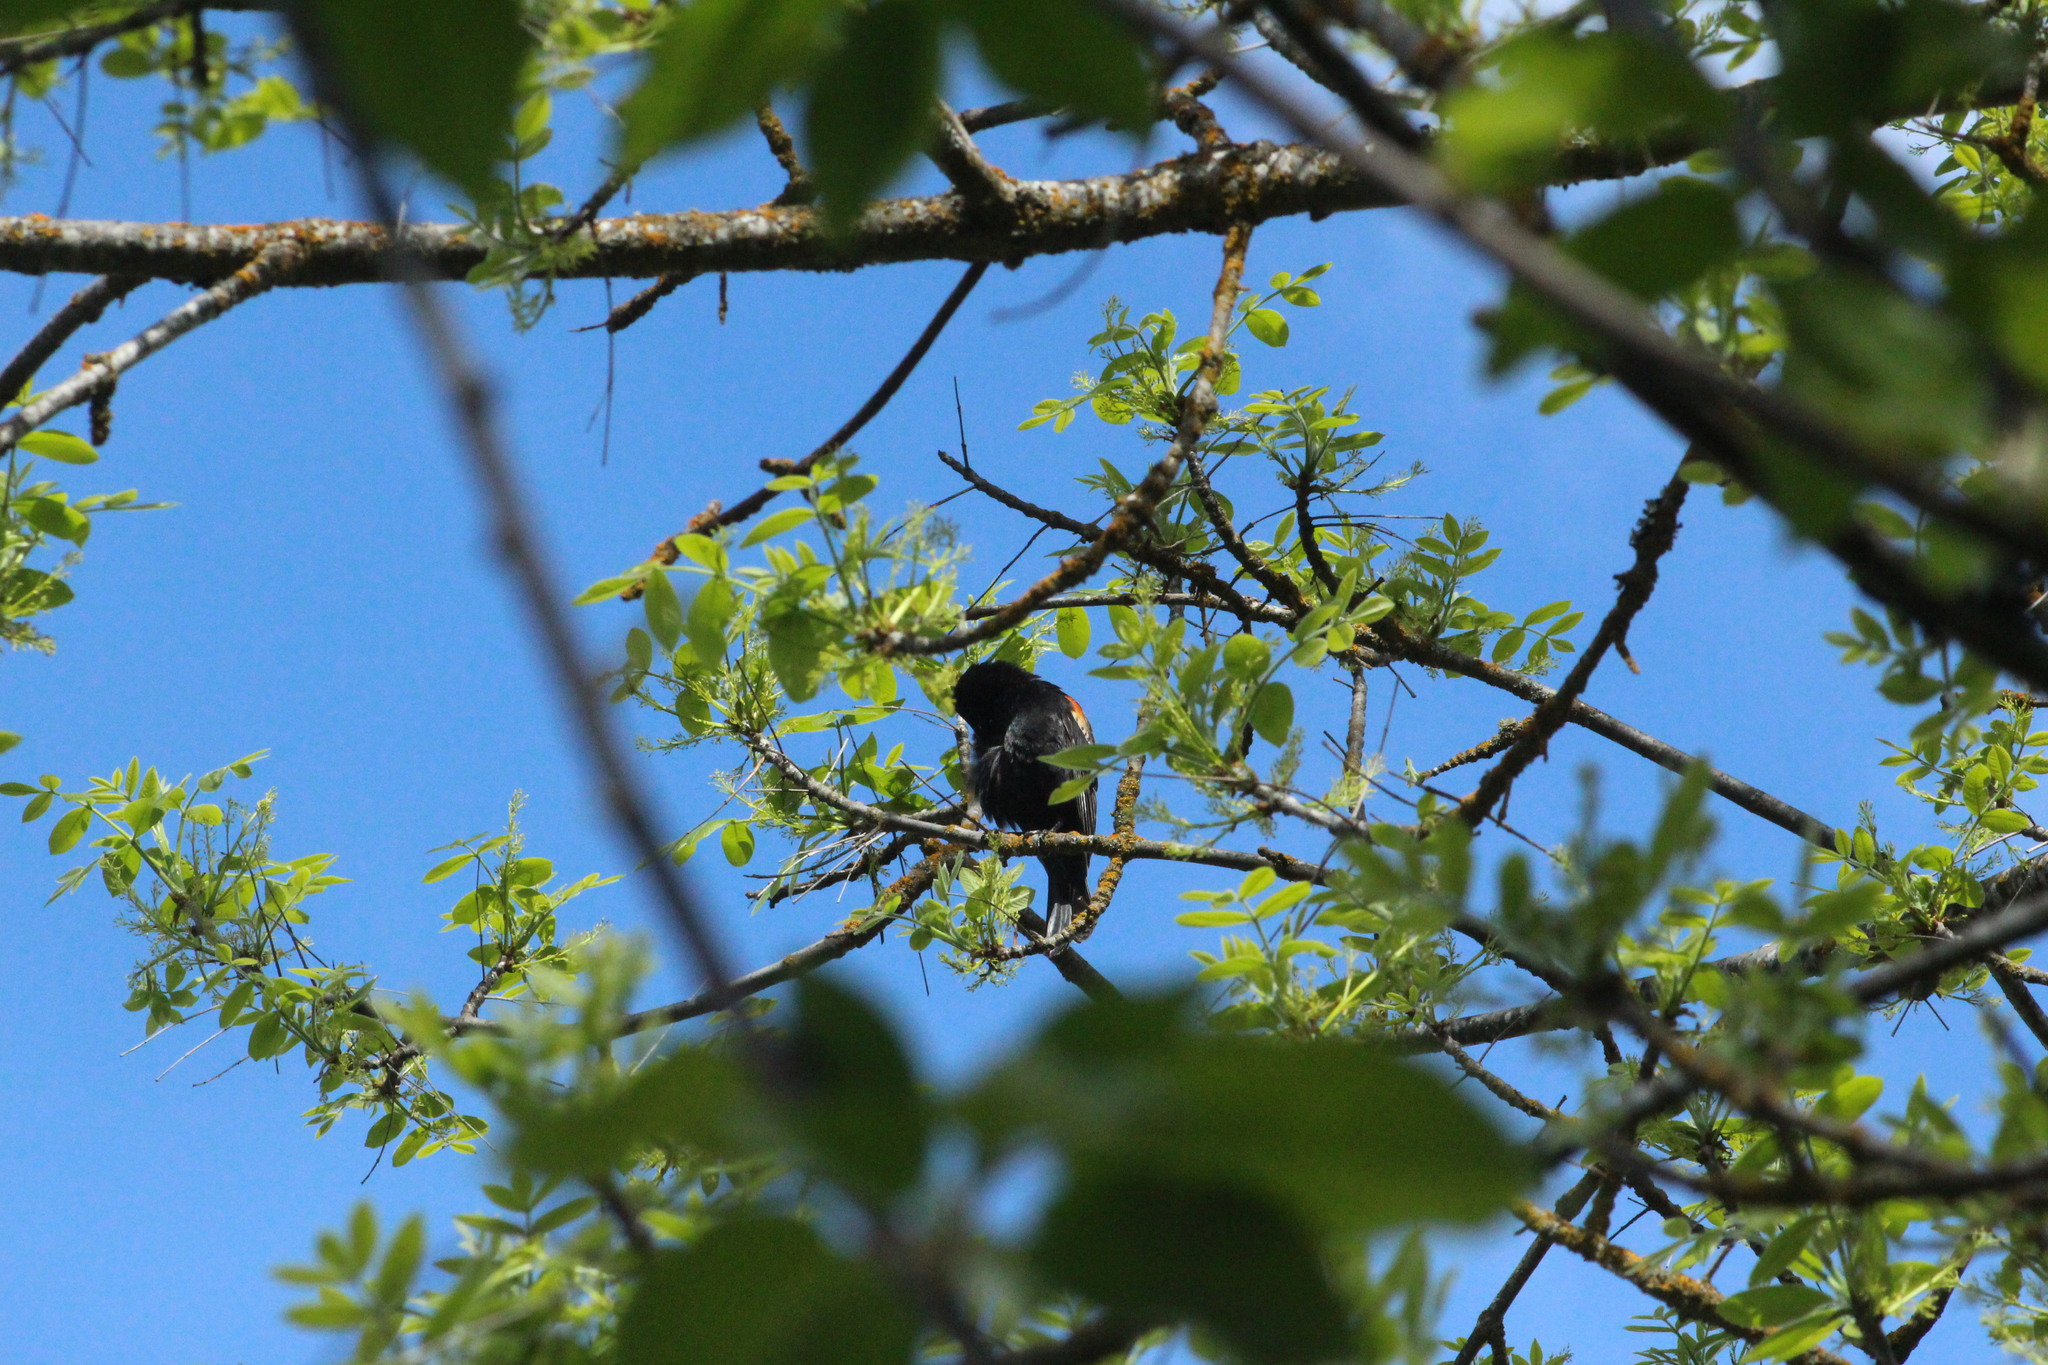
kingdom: Animalia
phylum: Chordata
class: Aves
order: Passeriformes
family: Icteridae
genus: Agelaius
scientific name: Agelaius phoeniceus
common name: Red-winged blackbird
